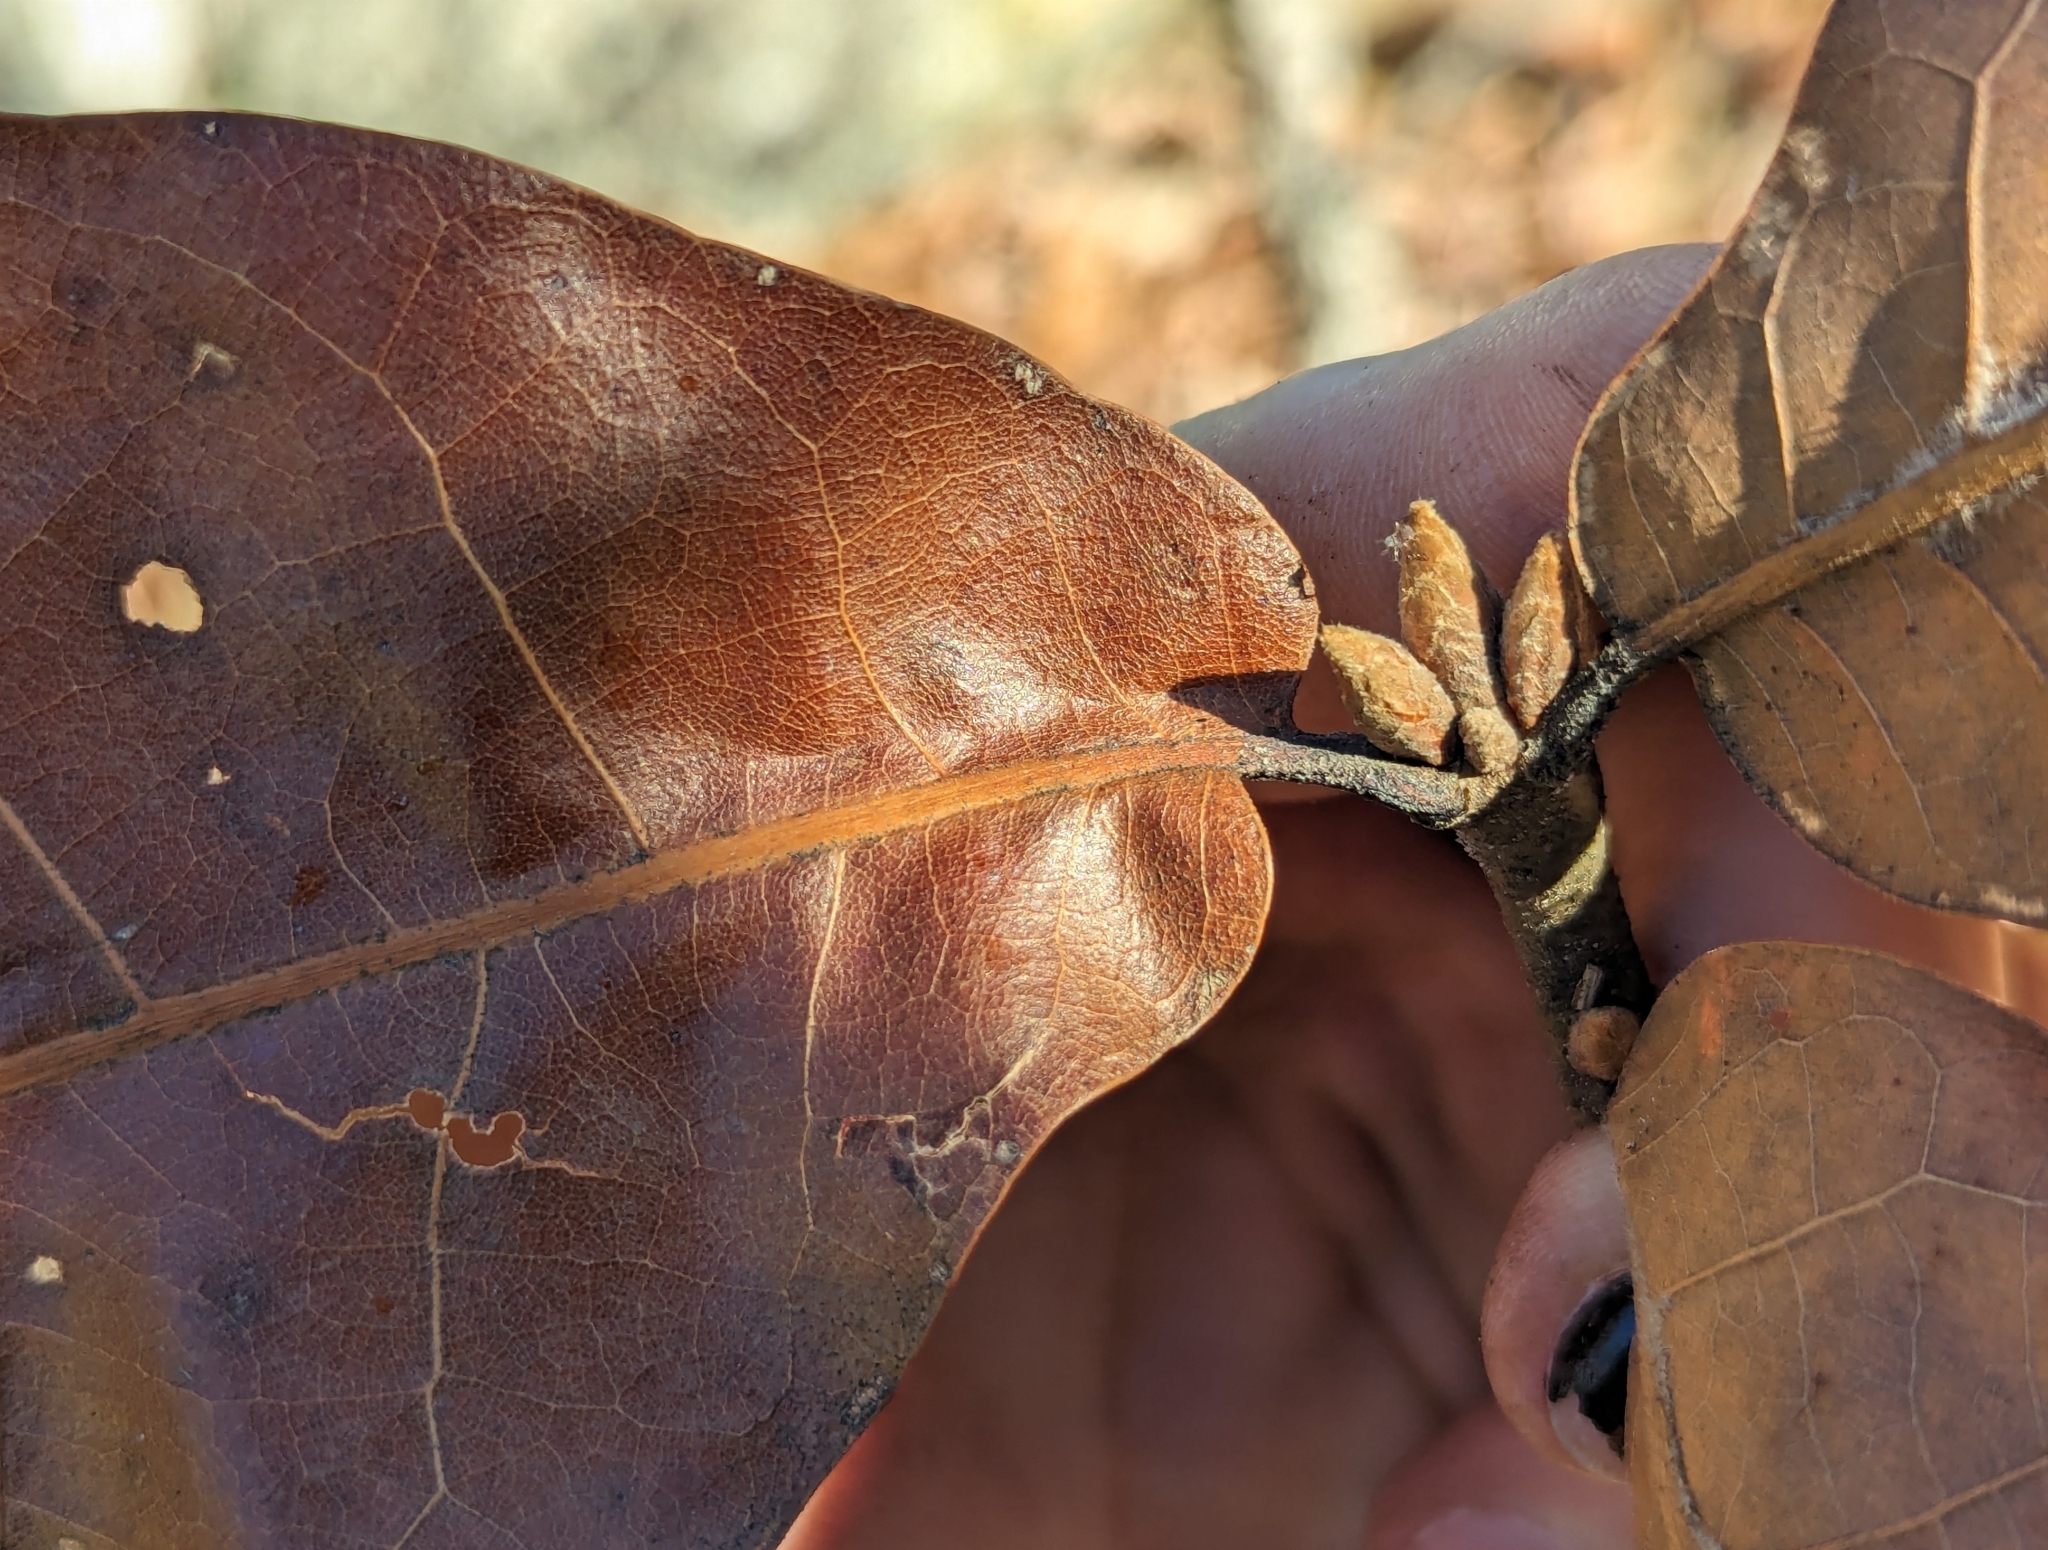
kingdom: Plantae
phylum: Tracheophyta
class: Magnoliopsida
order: Fagales
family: Fagaceae
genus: Quercus
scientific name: Quercus marilandica
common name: Blackjack oak
